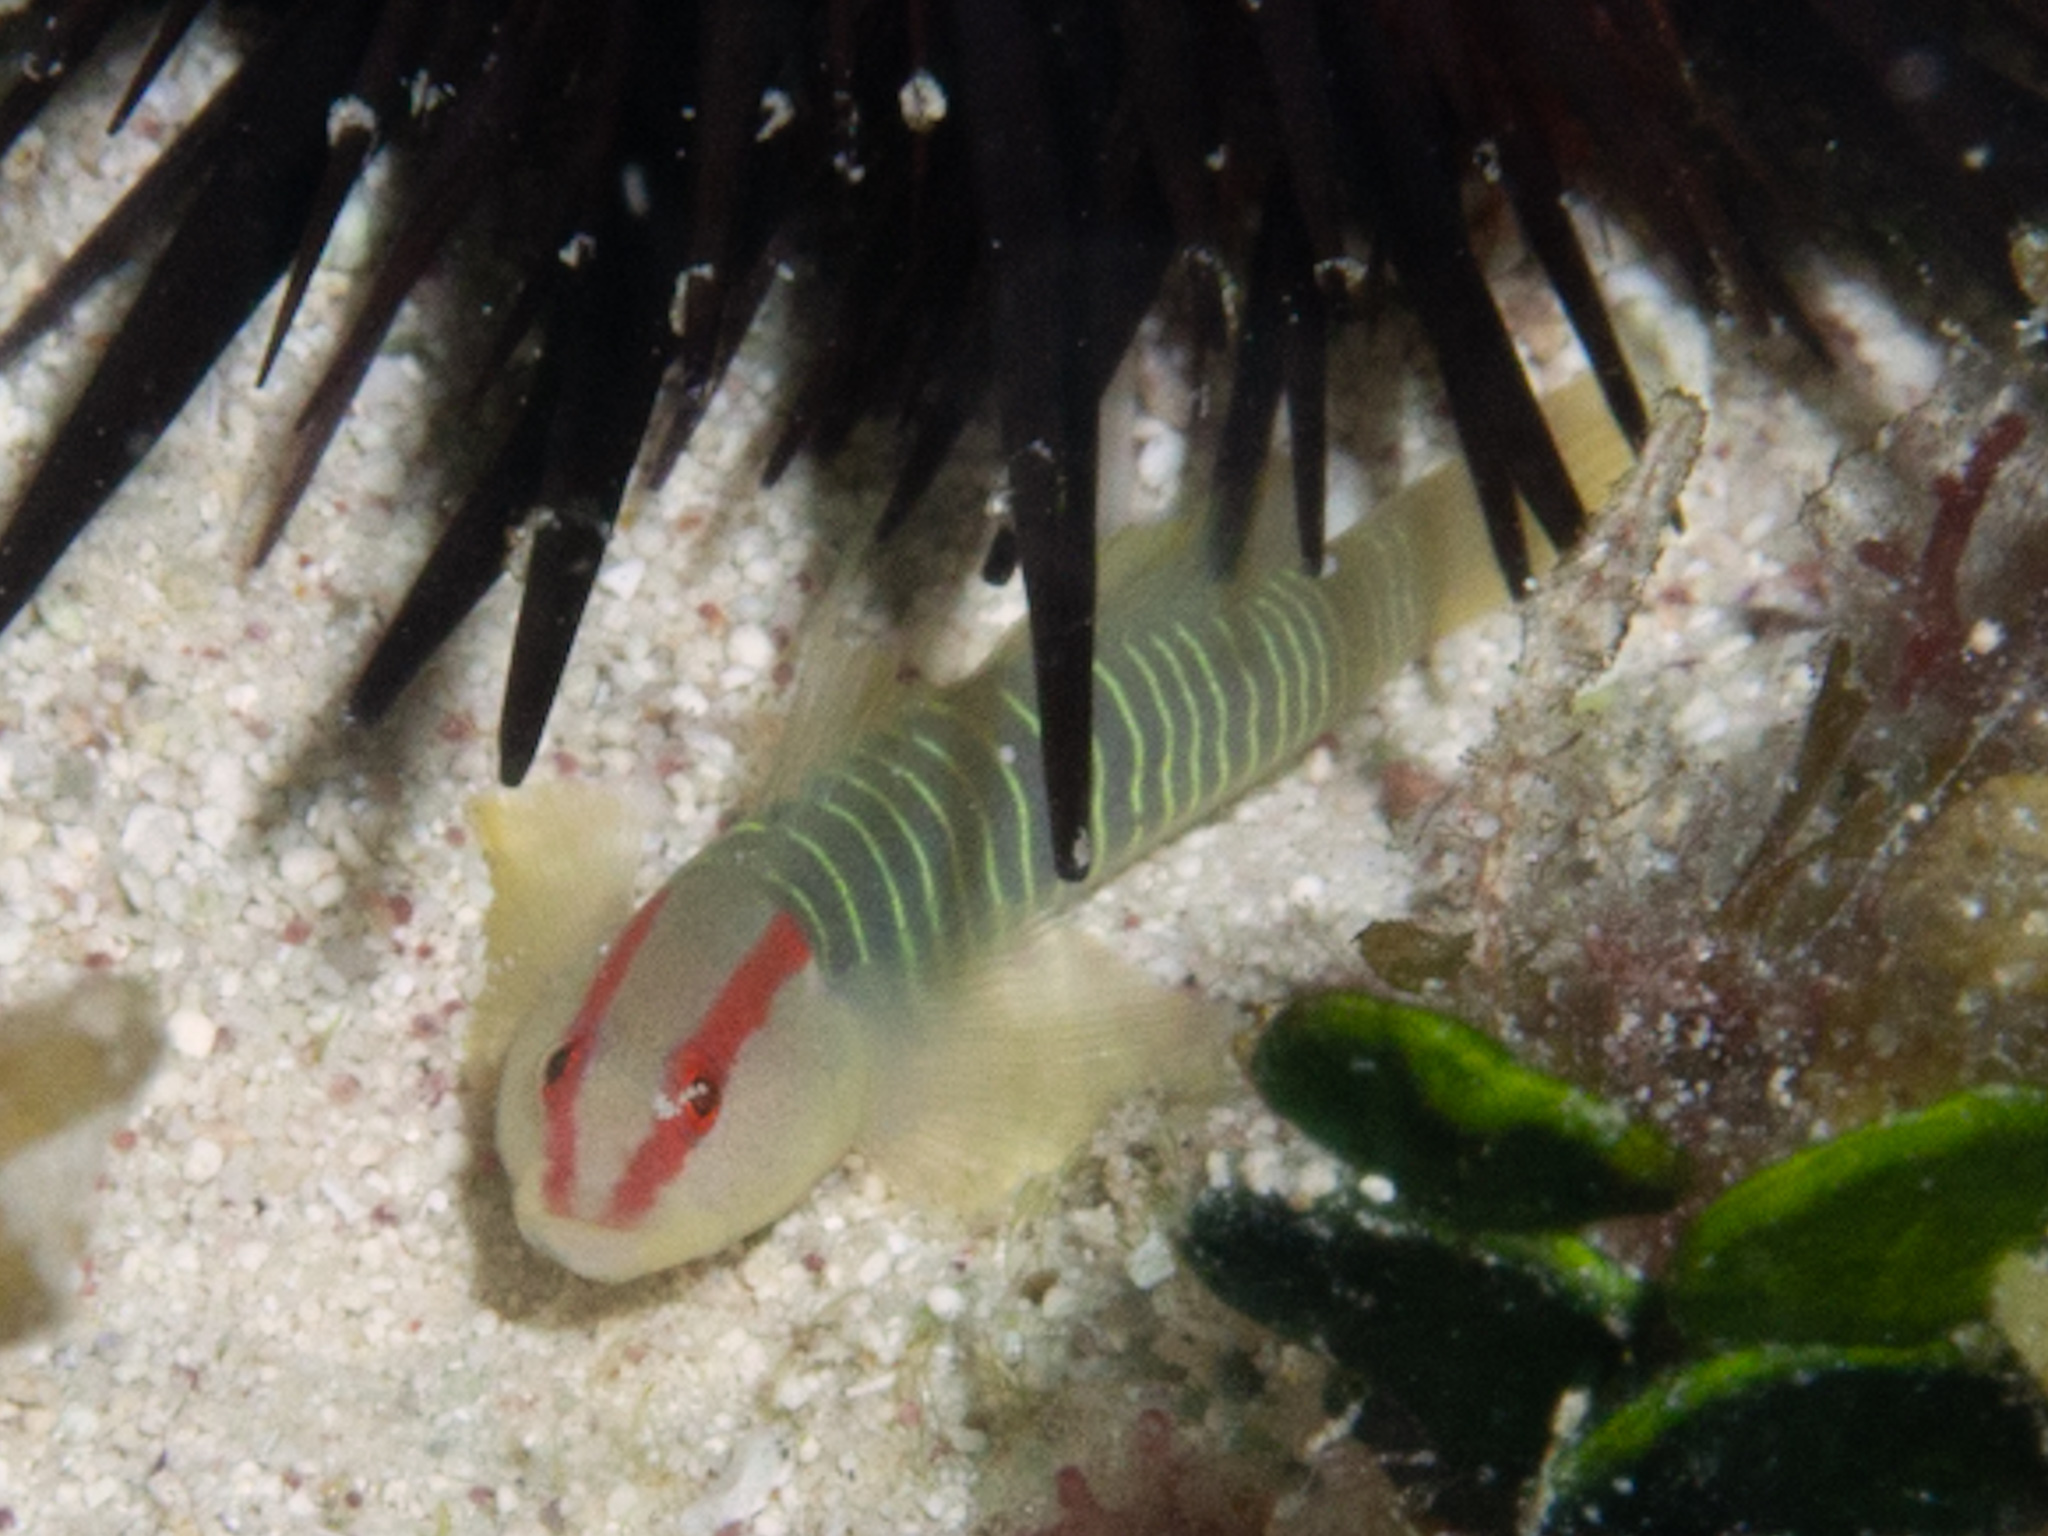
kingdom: Animalia
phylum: Chordata
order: Perciformes
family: Gobiidae
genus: Tigrigobius
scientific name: Tigrigobius harveyi
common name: Cayman greenbanded goby
